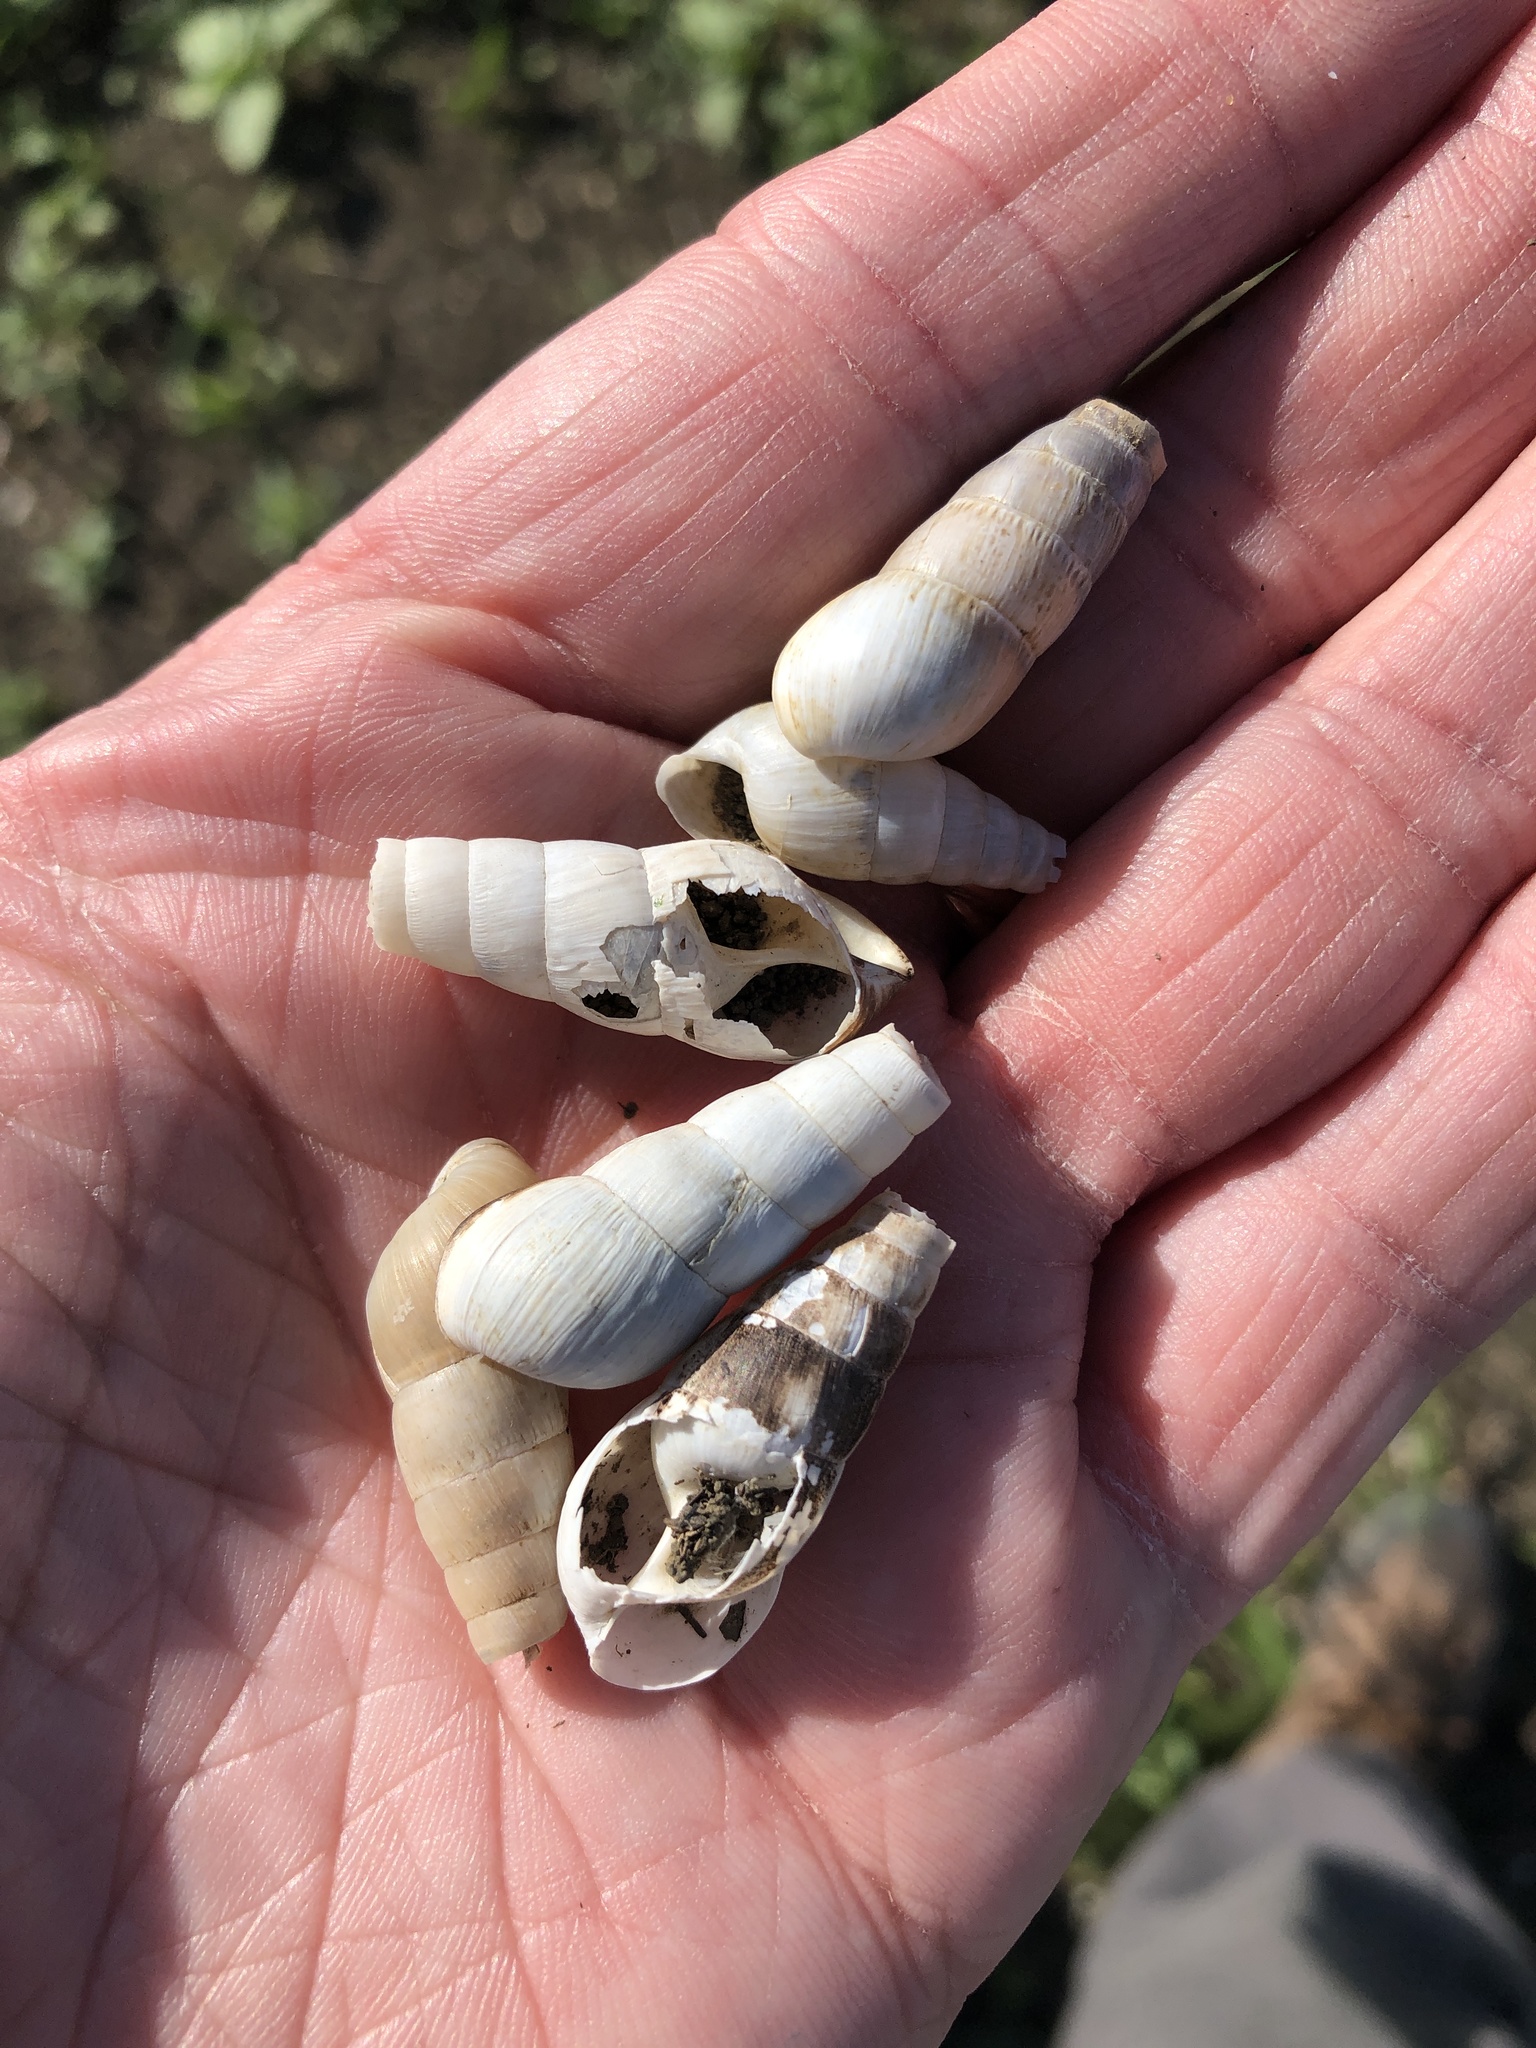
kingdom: Animalia
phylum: Mollusca
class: Gastropoda
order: Stylommatophora
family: Achatinidae
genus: Rumina
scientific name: Rumina decollata
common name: Decollate snail
